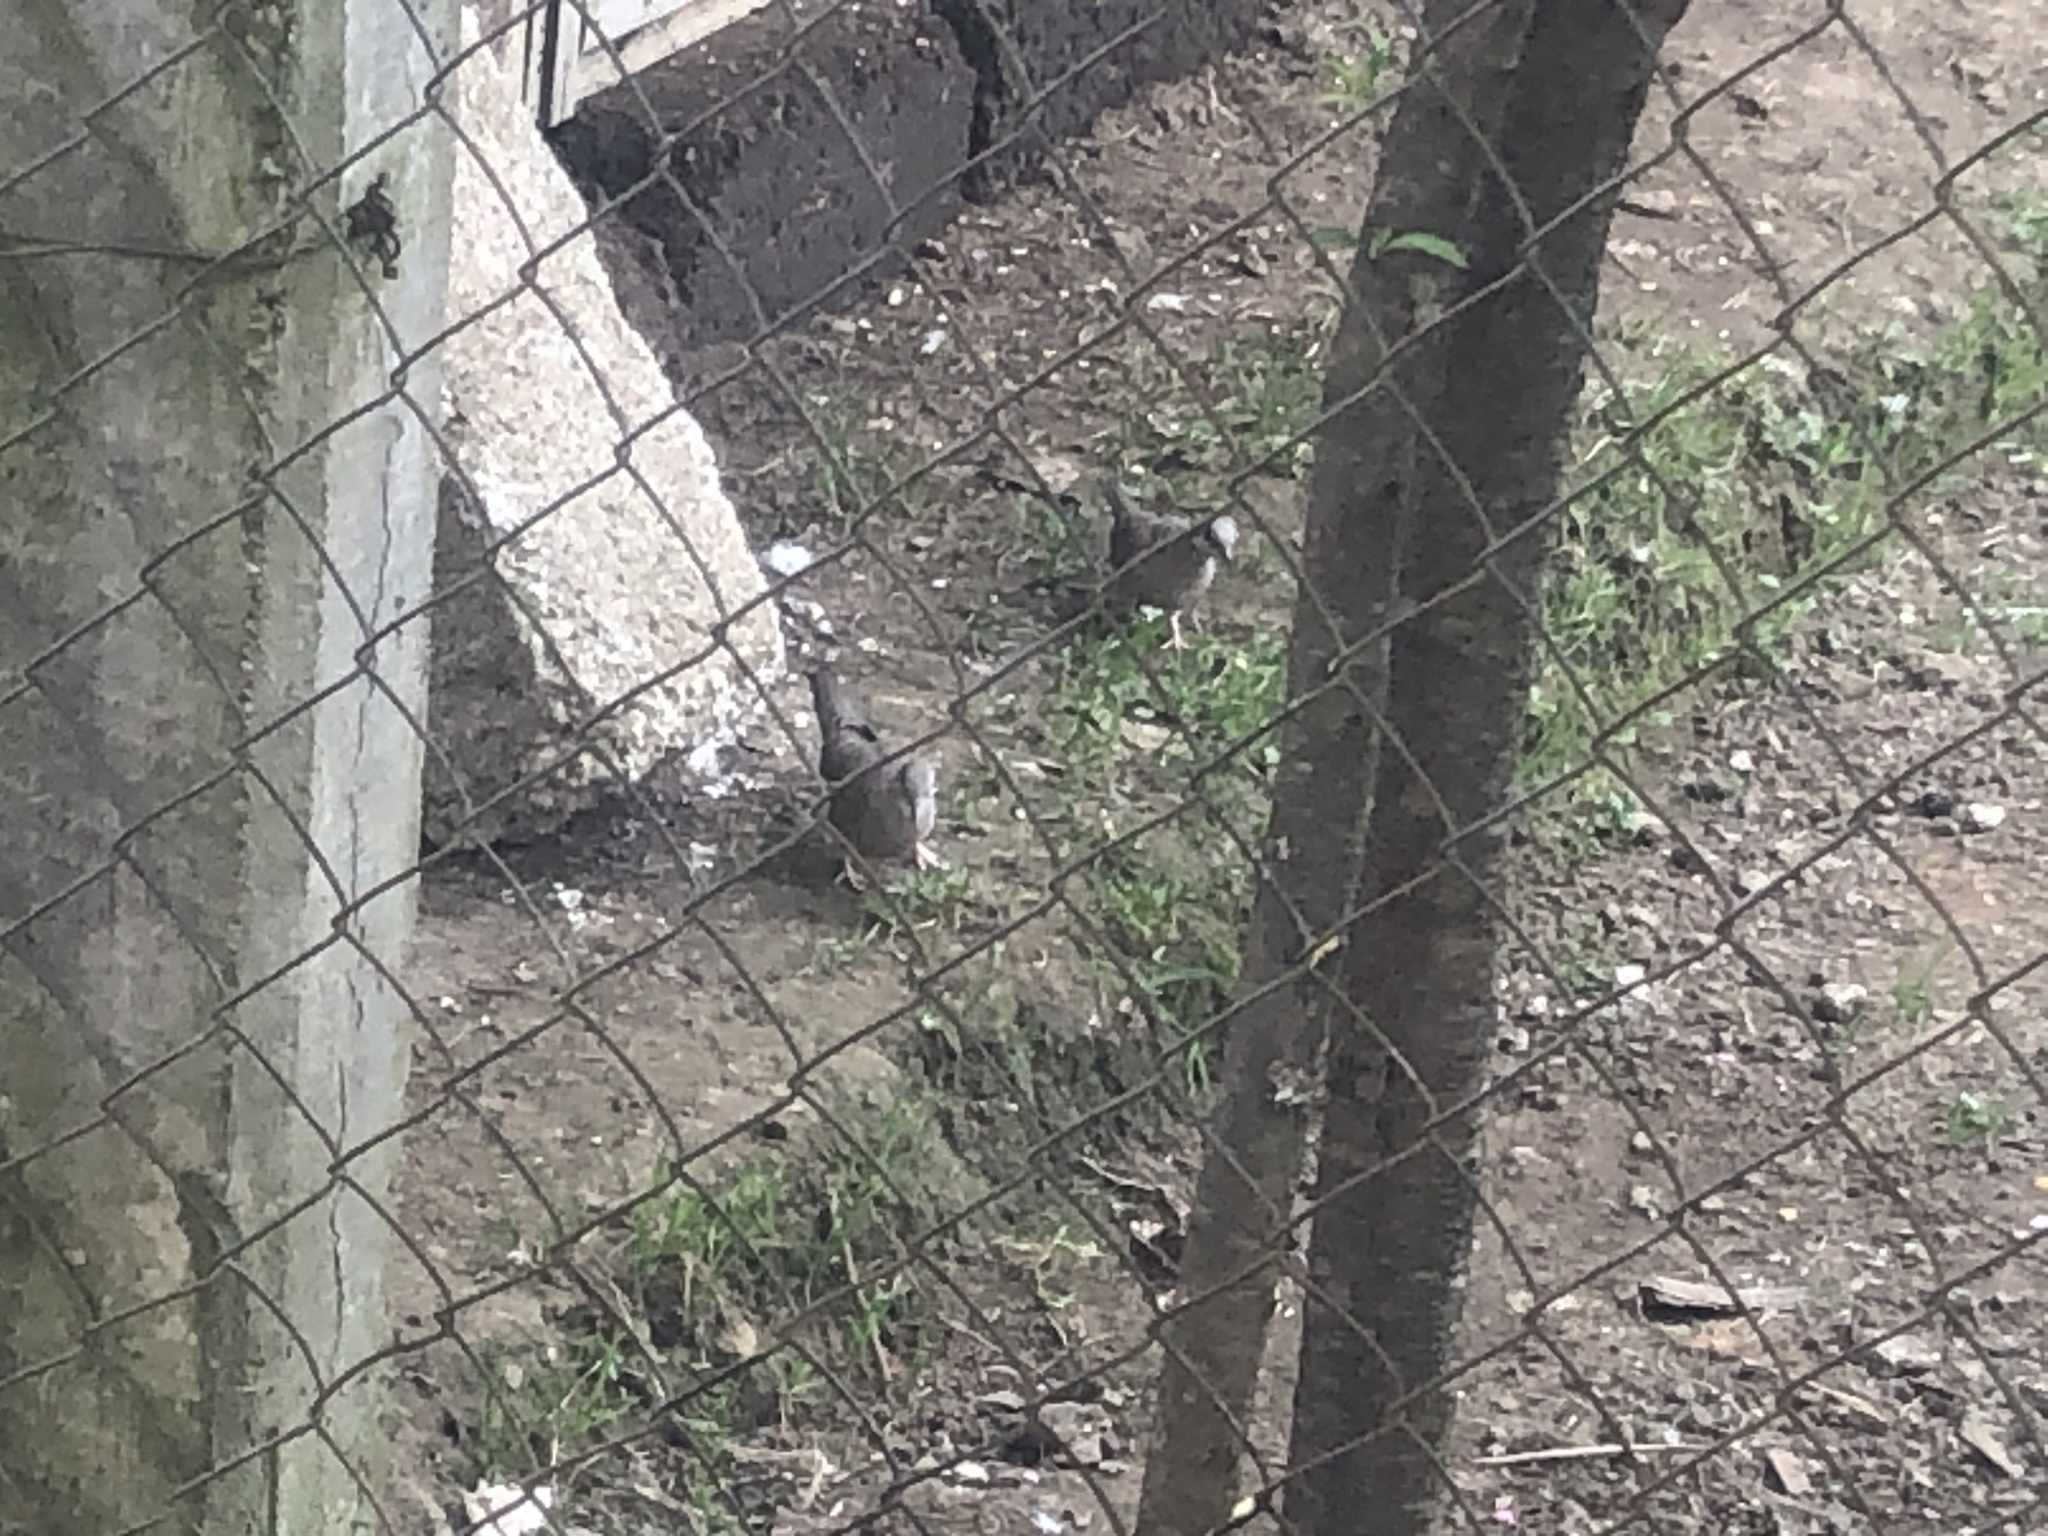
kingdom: Animalia
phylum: Chordata
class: Aves
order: Columbiformes
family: Columbidae
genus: Columbina
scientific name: Columbina inca
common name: Inca dove
